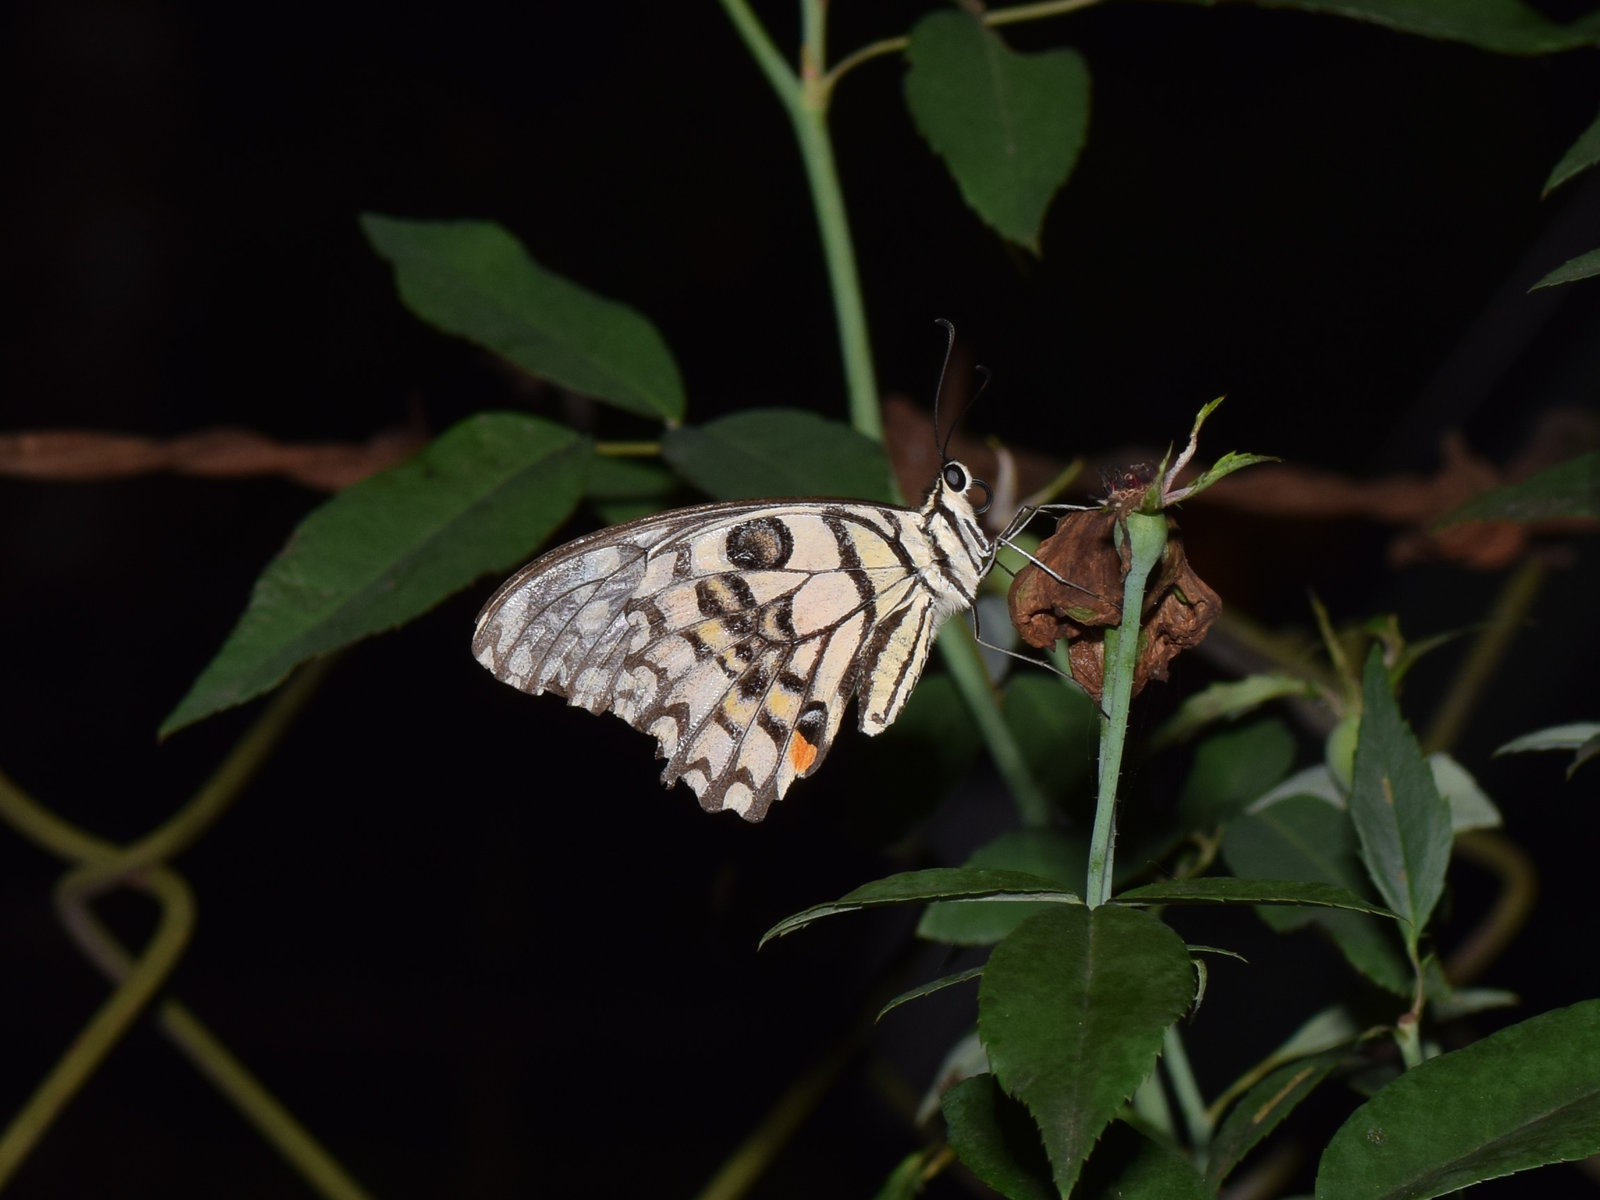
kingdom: Animalia
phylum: Arthropoda
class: Insecta
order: Lepidoptera
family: Papilionidae
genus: Papilio
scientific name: Papilio demoleus
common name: Lime butterfly
